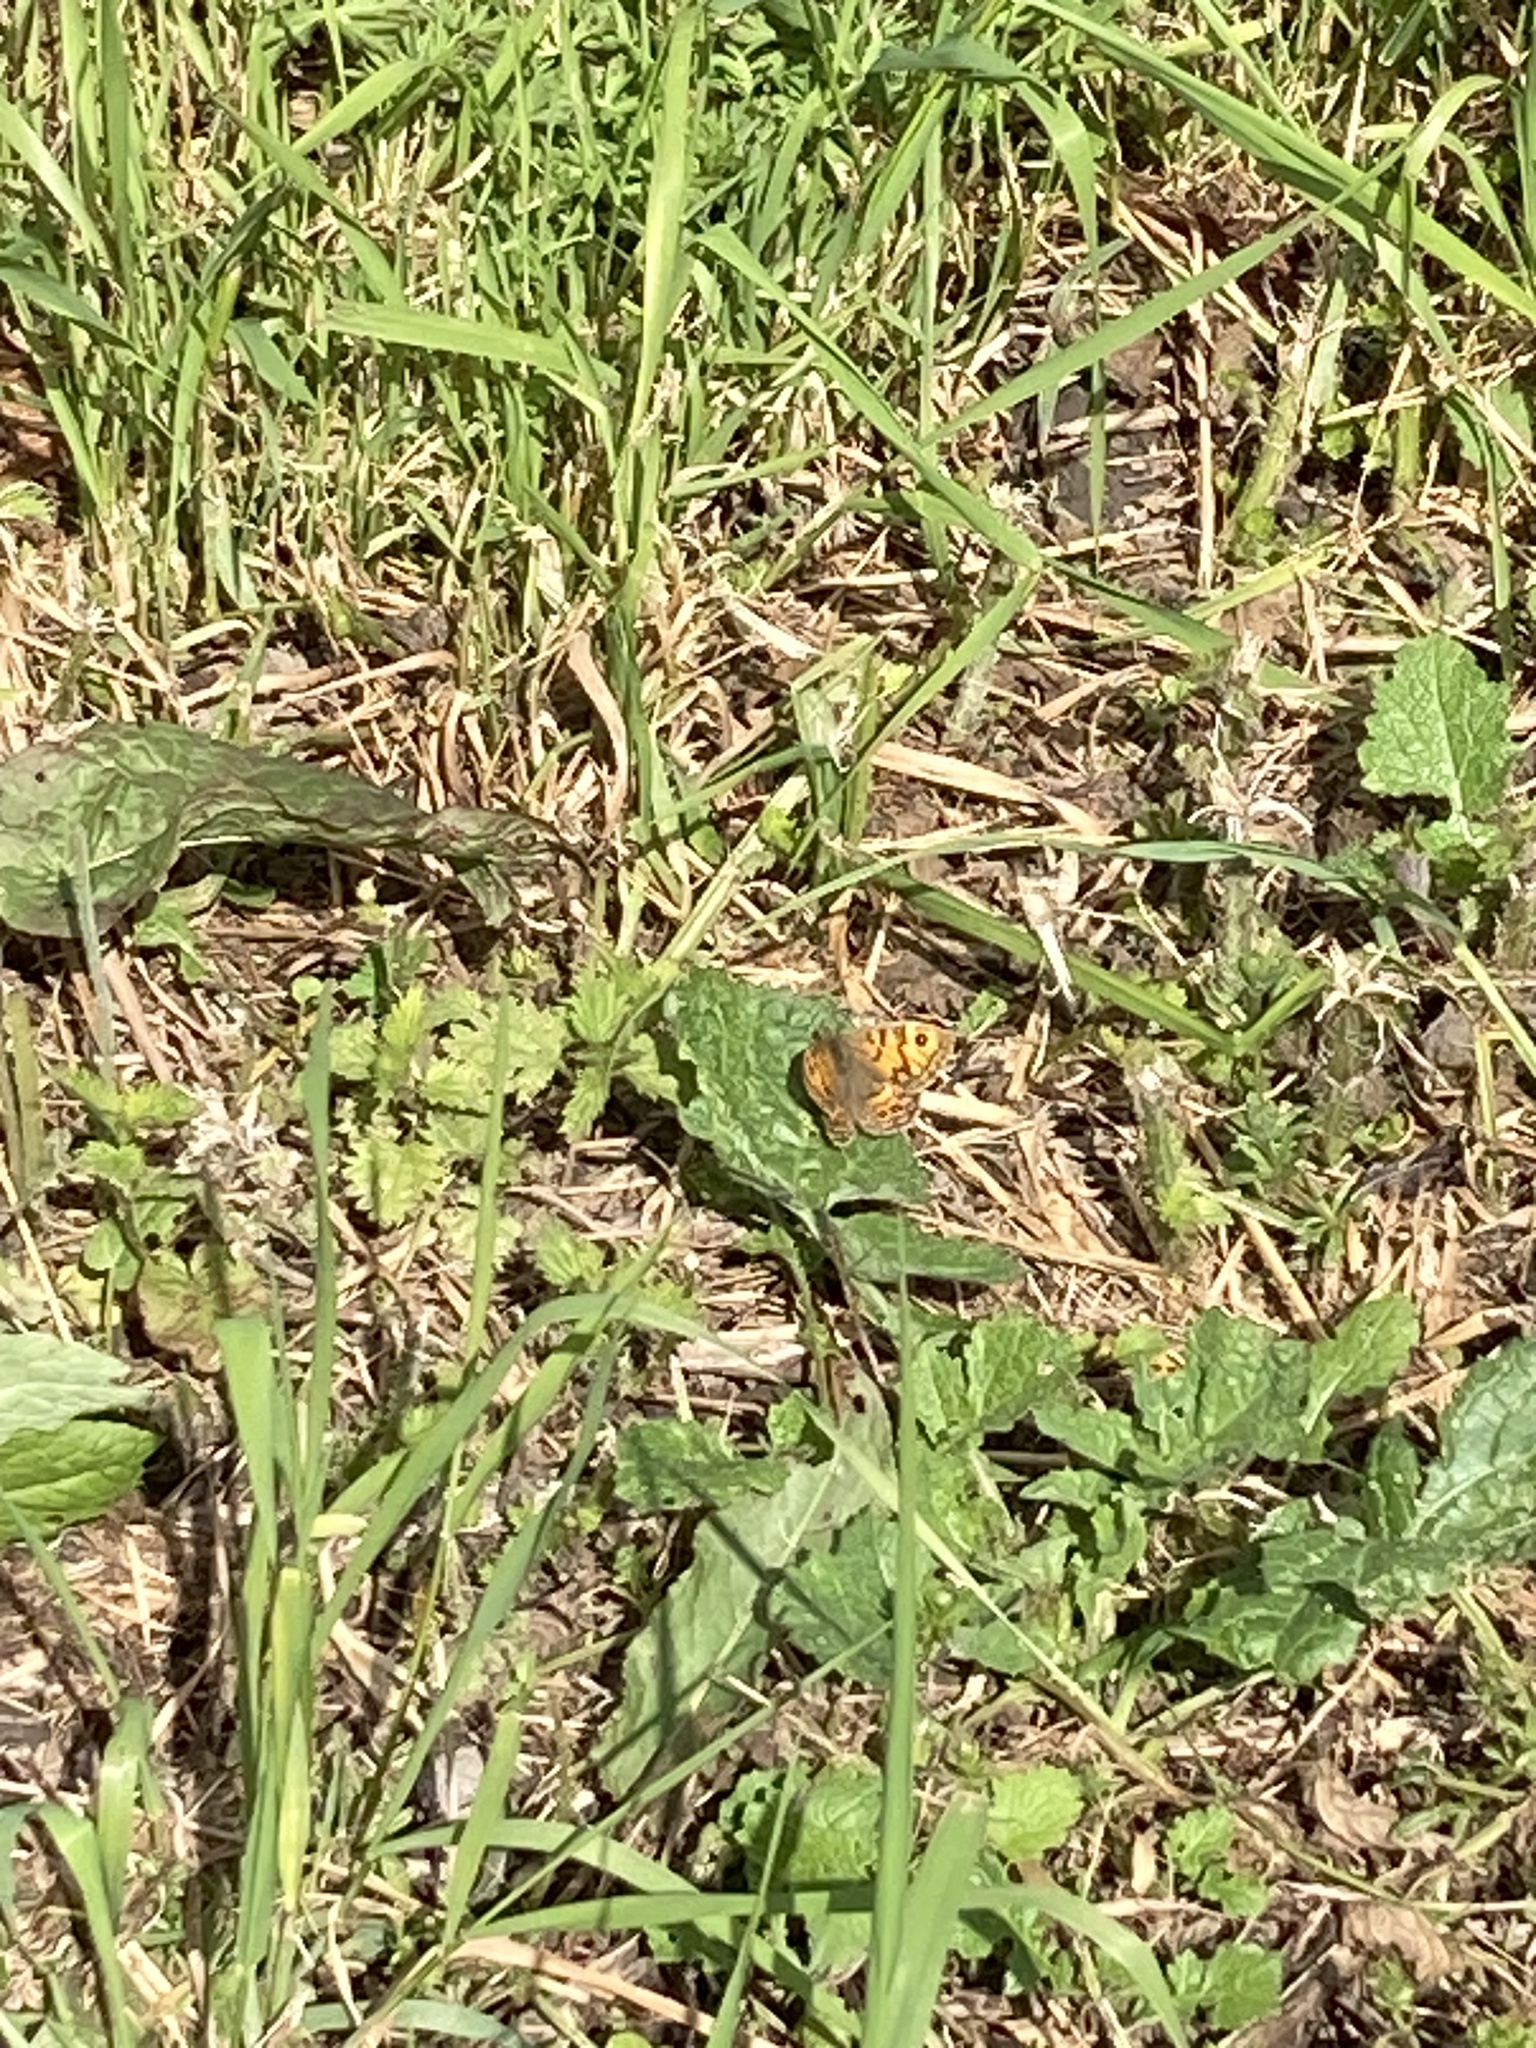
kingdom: Animalia
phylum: Arthropoda
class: Insecta
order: Lepidoptera
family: Nymphalidae
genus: Pararge
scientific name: Pararge Lasiommata megera
